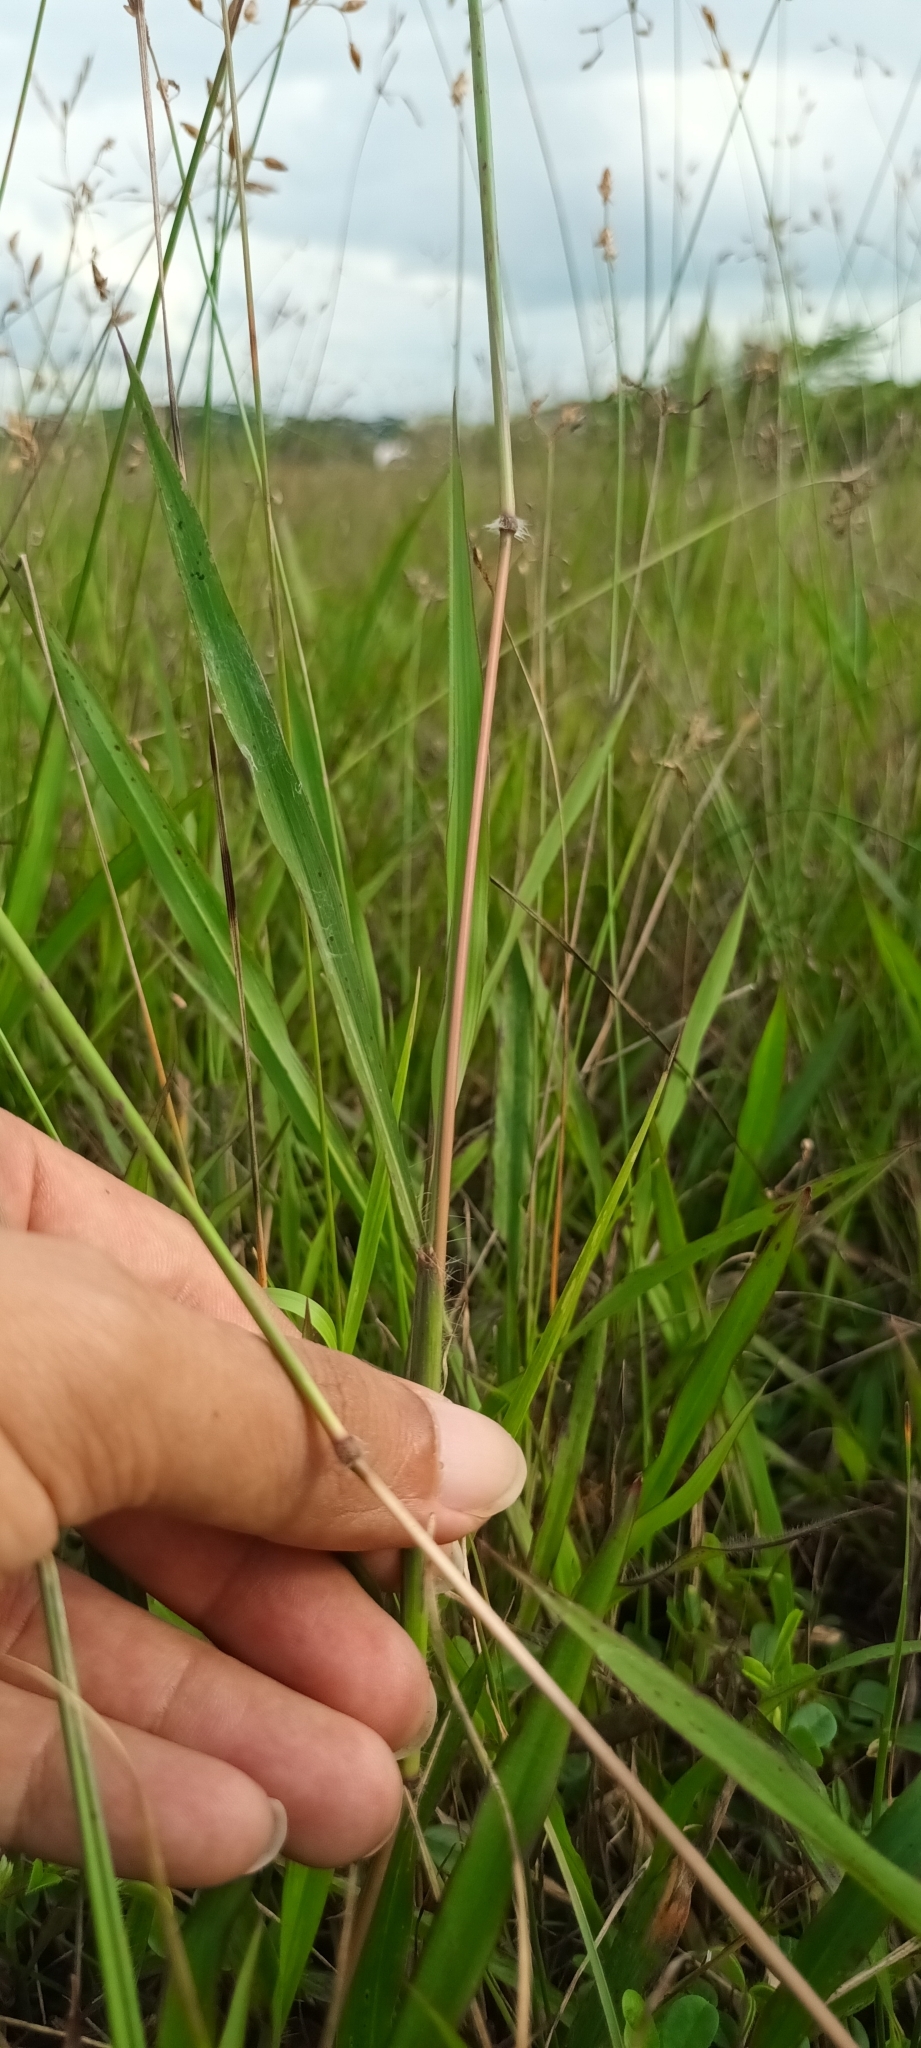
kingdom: Plantae
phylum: Tracheophyta
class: Liliopsida
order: Poales
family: Poaceae
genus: Ischaemum
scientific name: Ischaemum ciliare
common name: Grass
